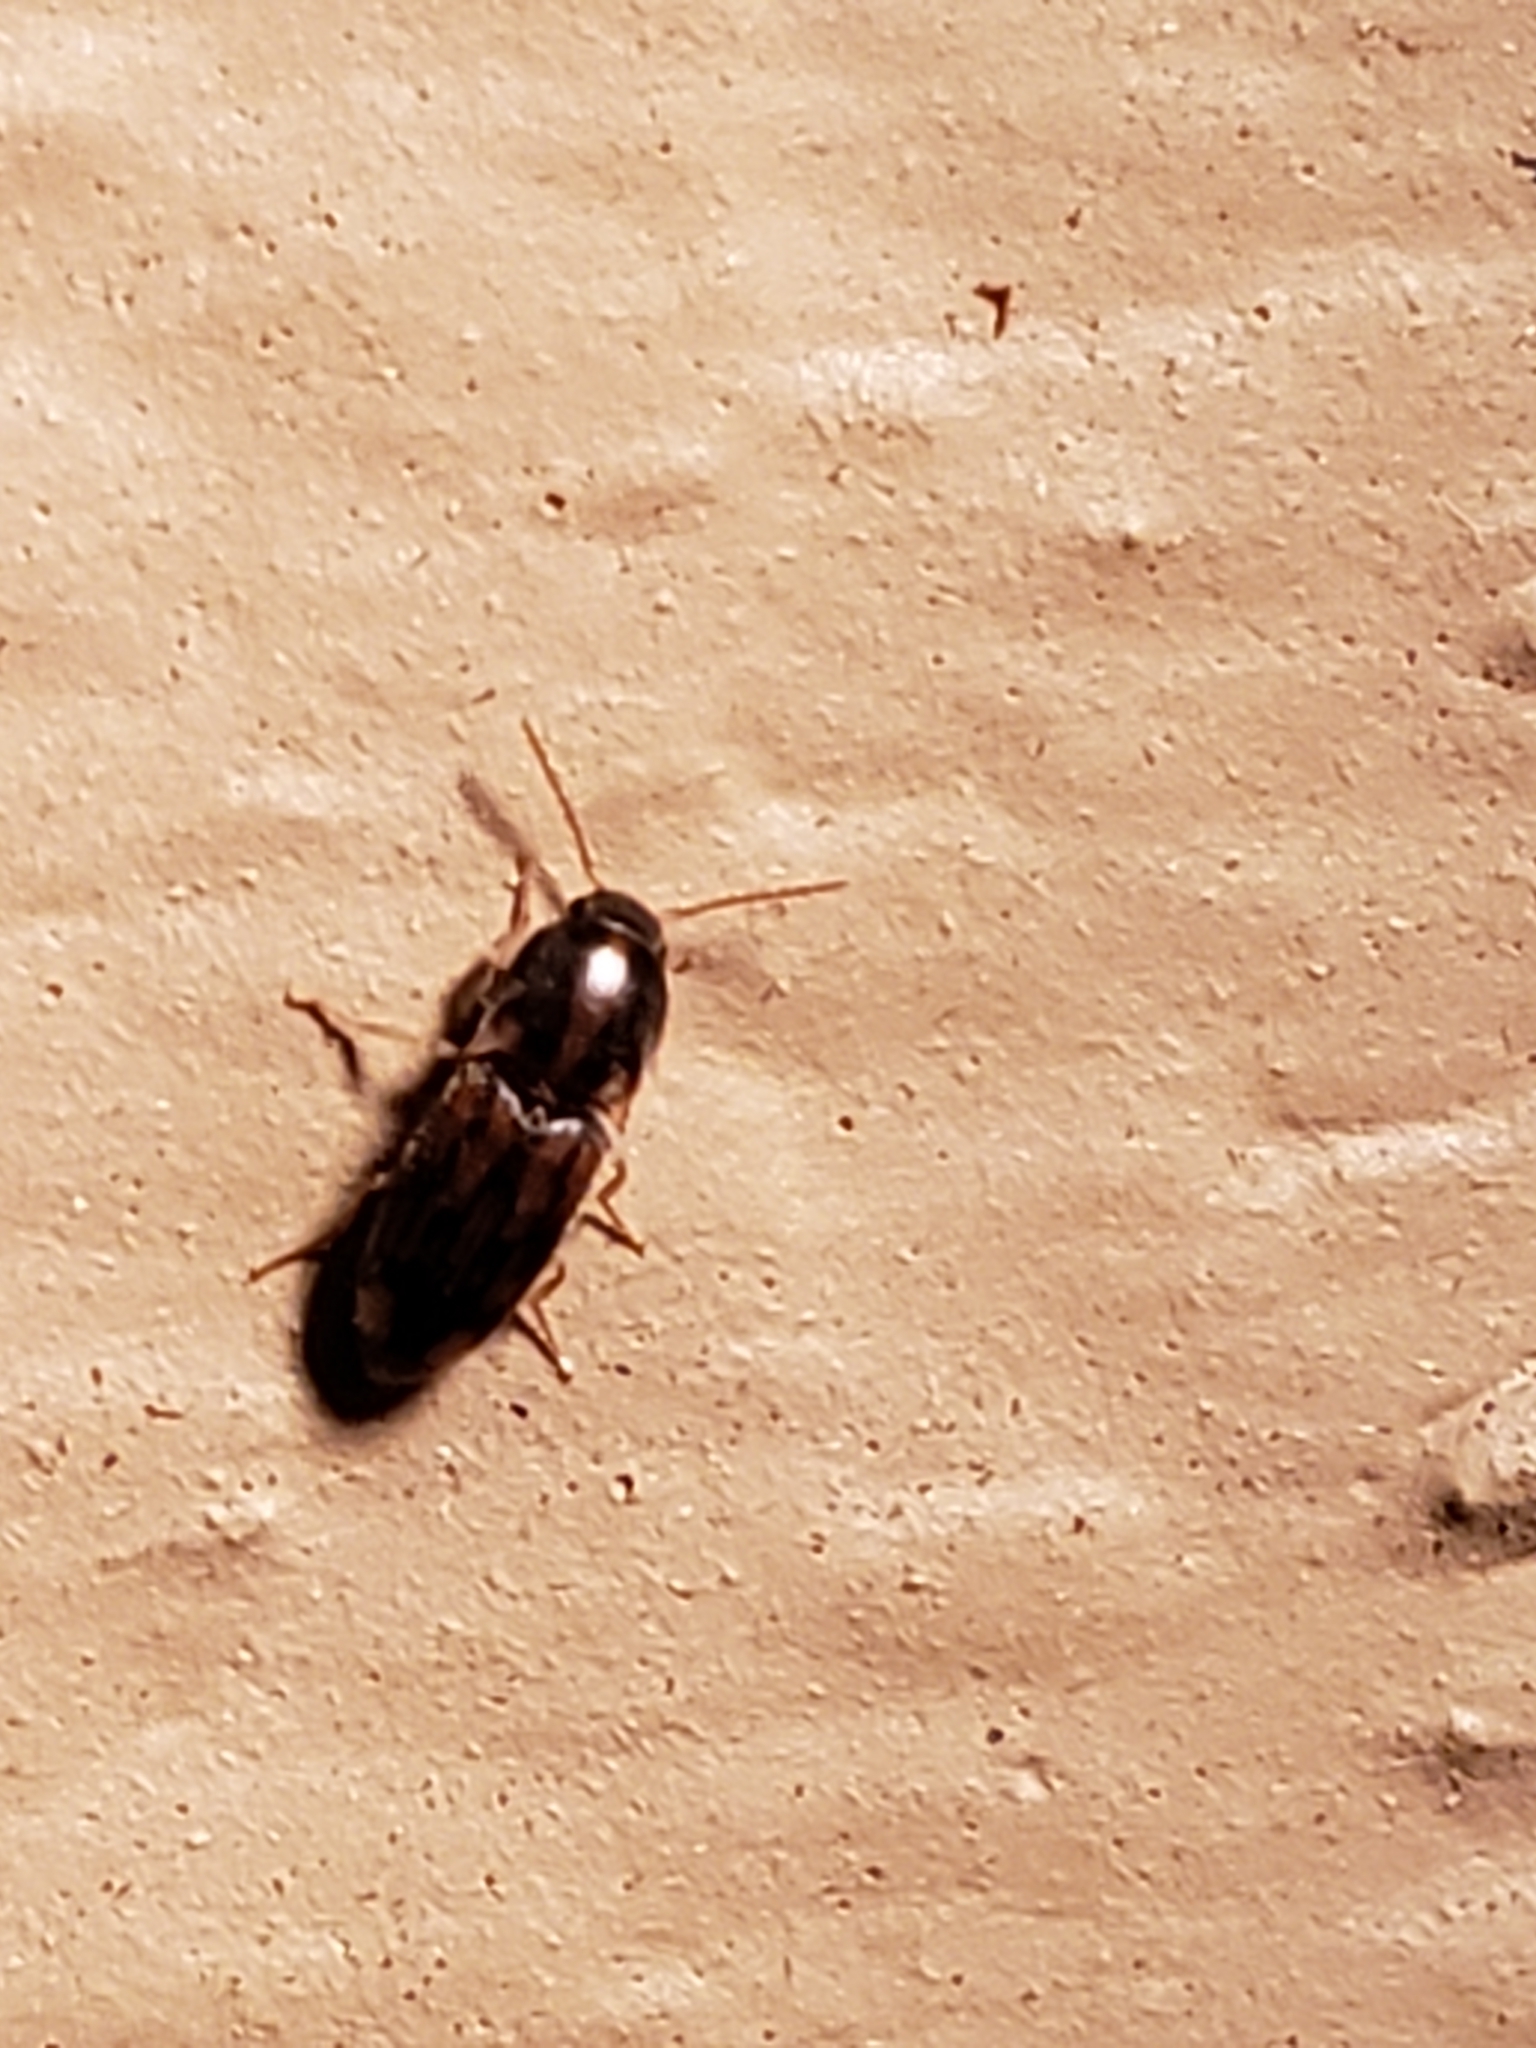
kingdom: Animalia
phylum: Arthropoda
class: Insecta
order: Coleoptera
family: Elateridae
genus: Monocrepidius
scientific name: Monocrepidius bellus
